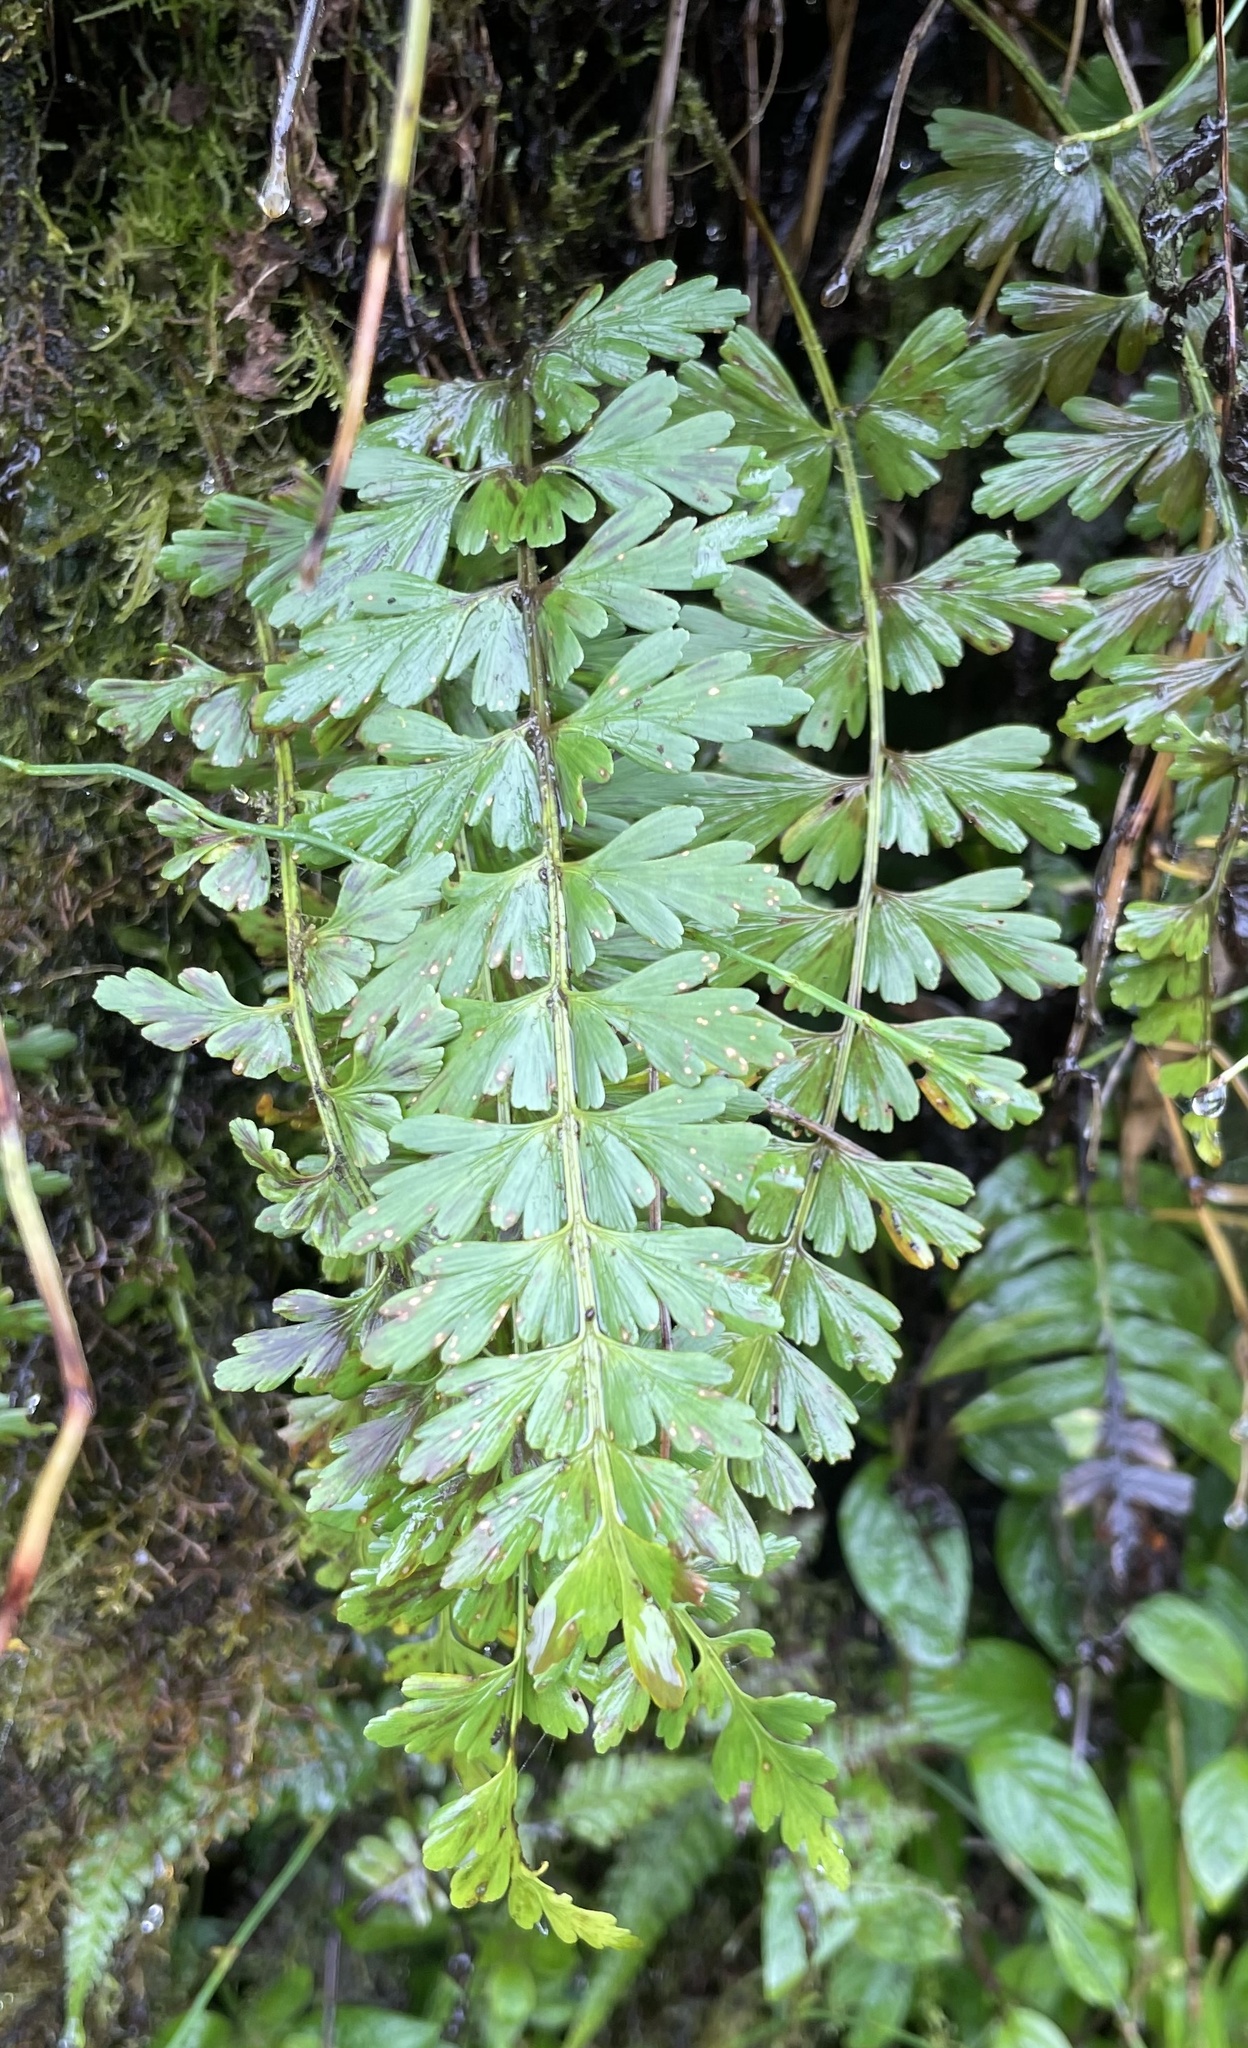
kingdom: Plantae
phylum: Tracheophyta
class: Polypodiopsida
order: Polypodiales
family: Aspleniaceae
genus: Asplenium
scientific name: Asplenium praemorsum
